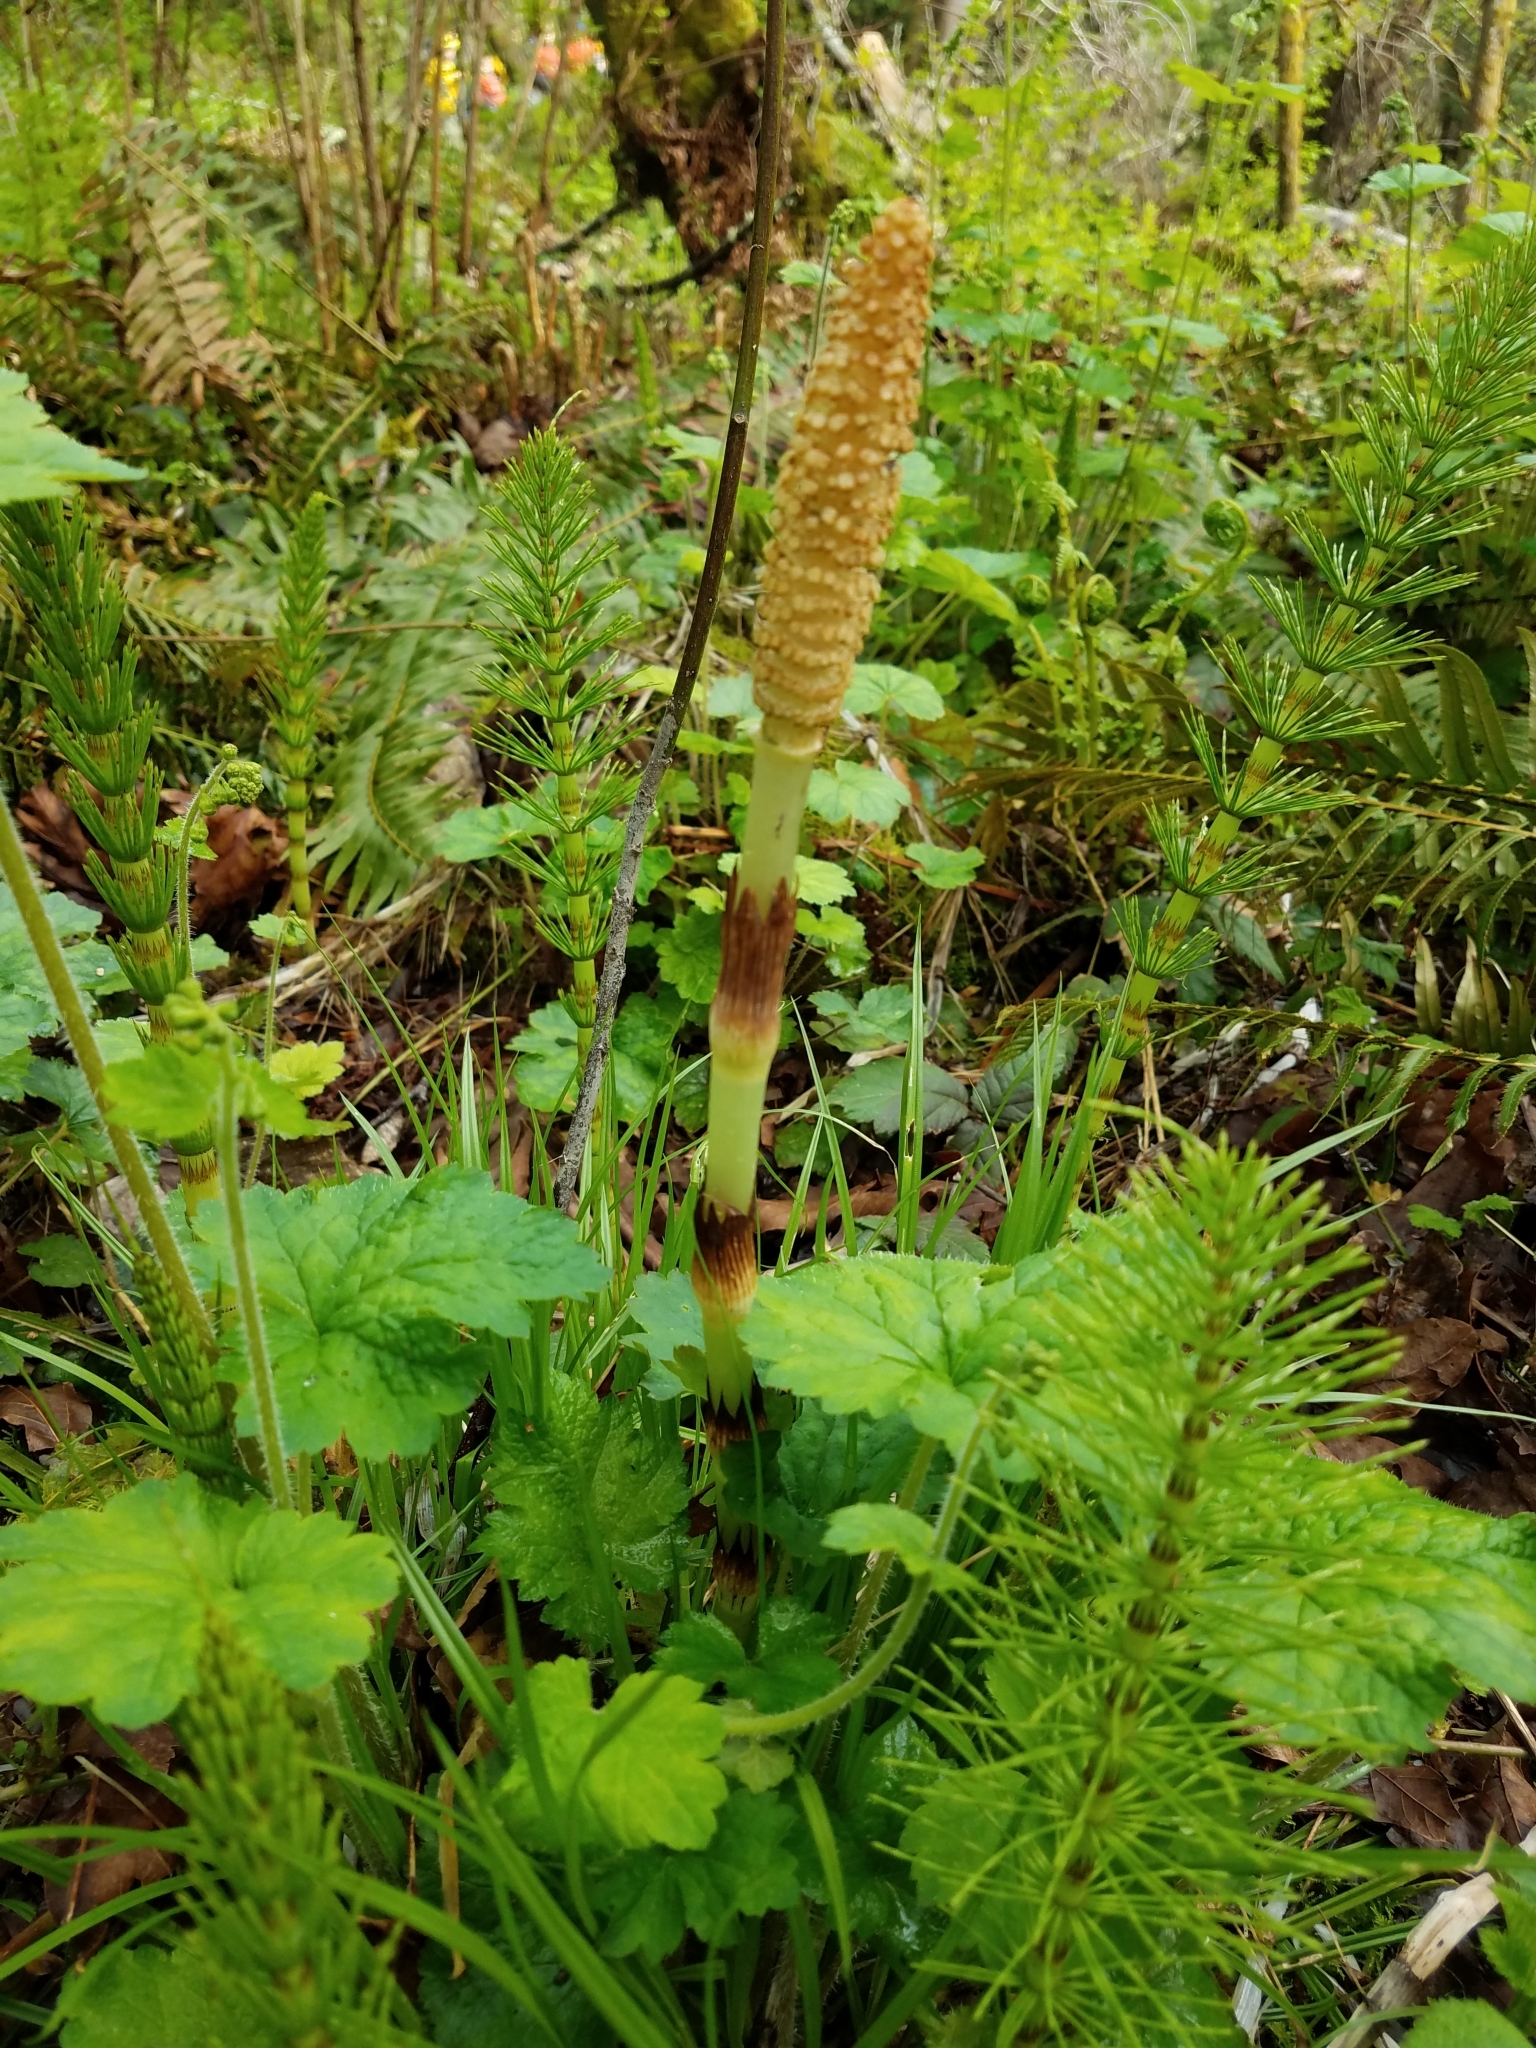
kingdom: Plantae
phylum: Tracheophyta
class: Polypodiopsida
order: Equisetales
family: Equisetaceae
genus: Equisetum
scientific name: Equisetum braunii
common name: Braun's horsetail
